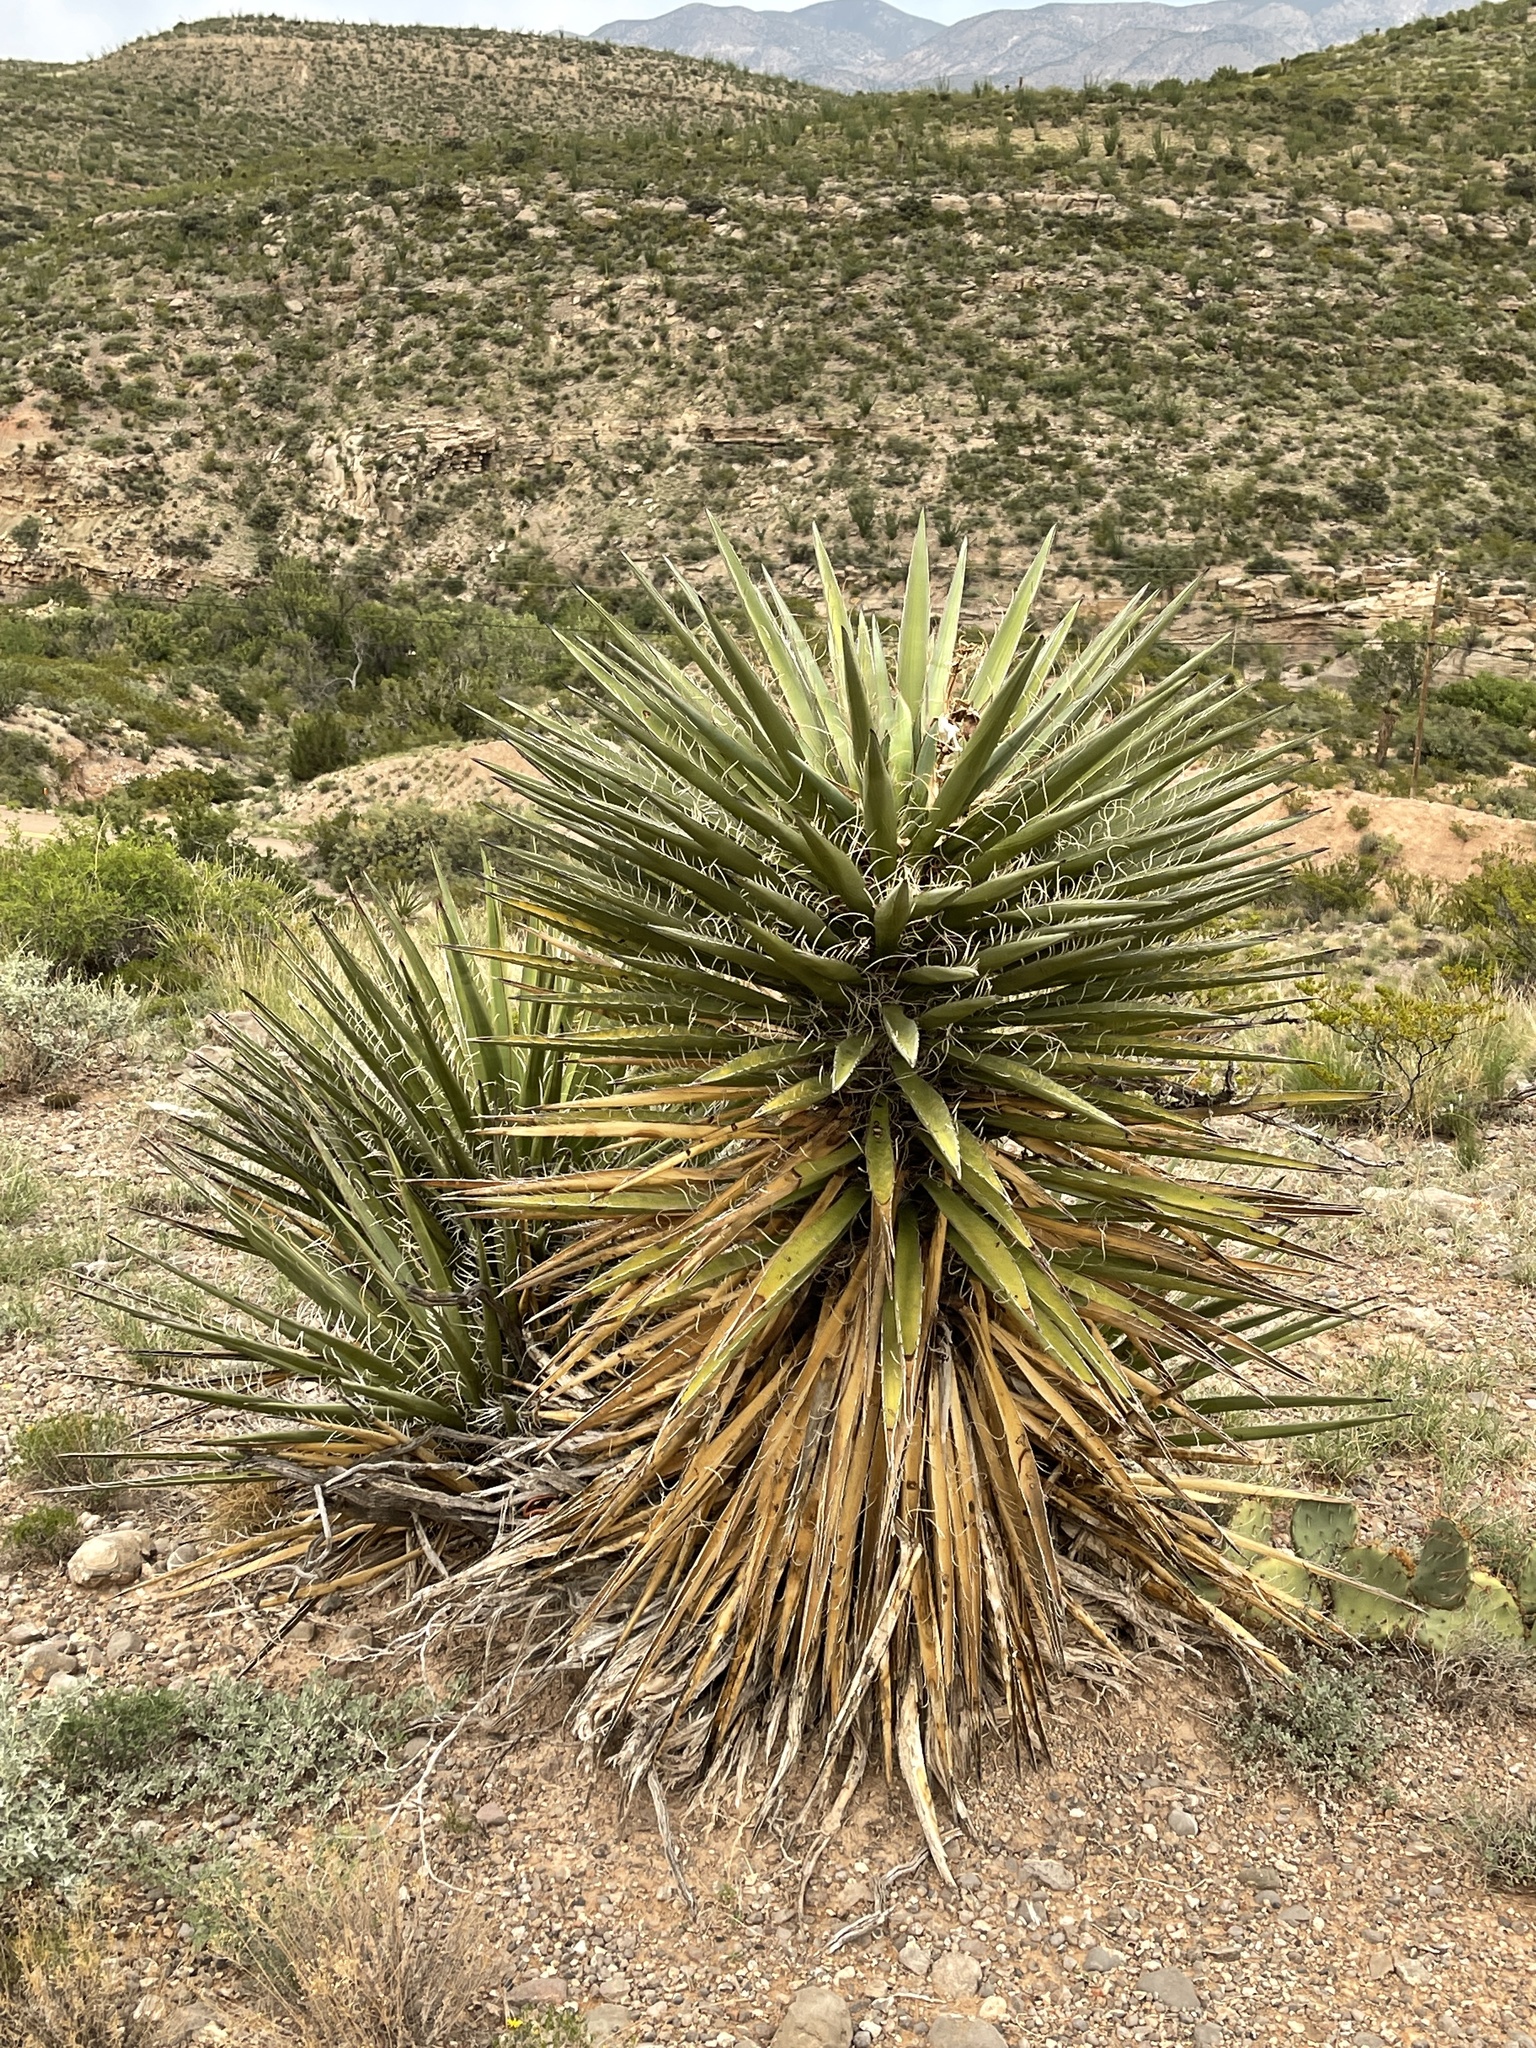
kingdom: Plantae
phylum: Tracheophyta
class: Liliopsida
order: Asparagales
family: Asparagaceae
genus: Yucca
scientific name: Yucca treculiana
